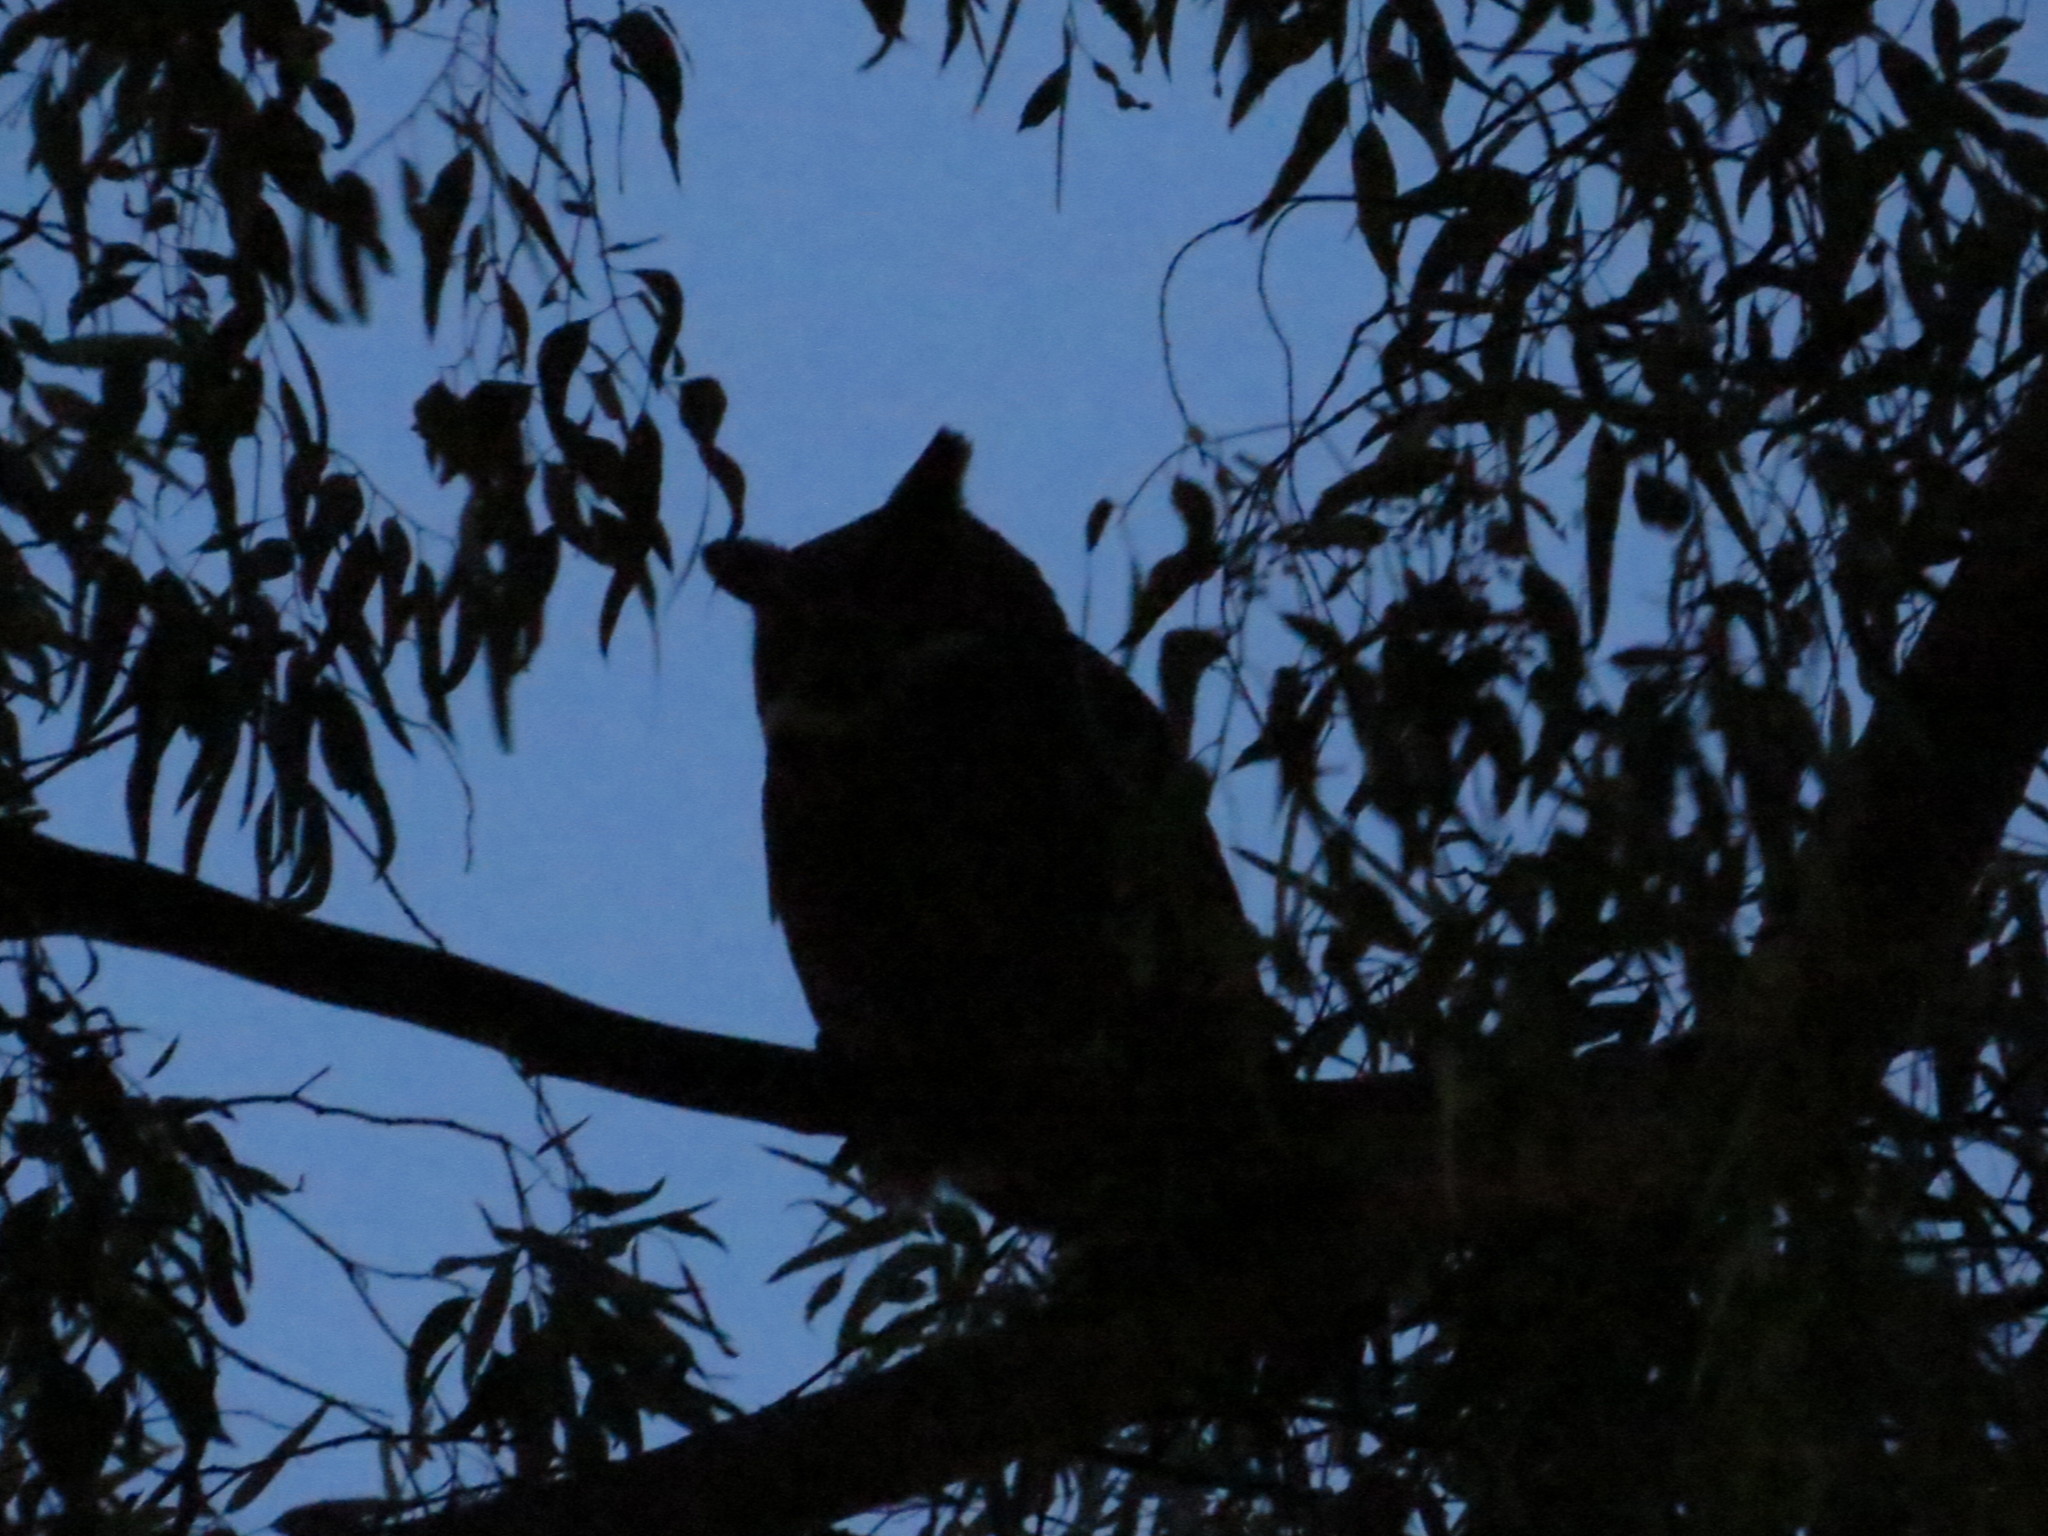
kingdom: Animalia
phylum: Chordata
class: Aves
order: Strigiformes
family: Strigidae
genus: Bubo
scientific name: Bubo virginianus
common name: Great horned owl
